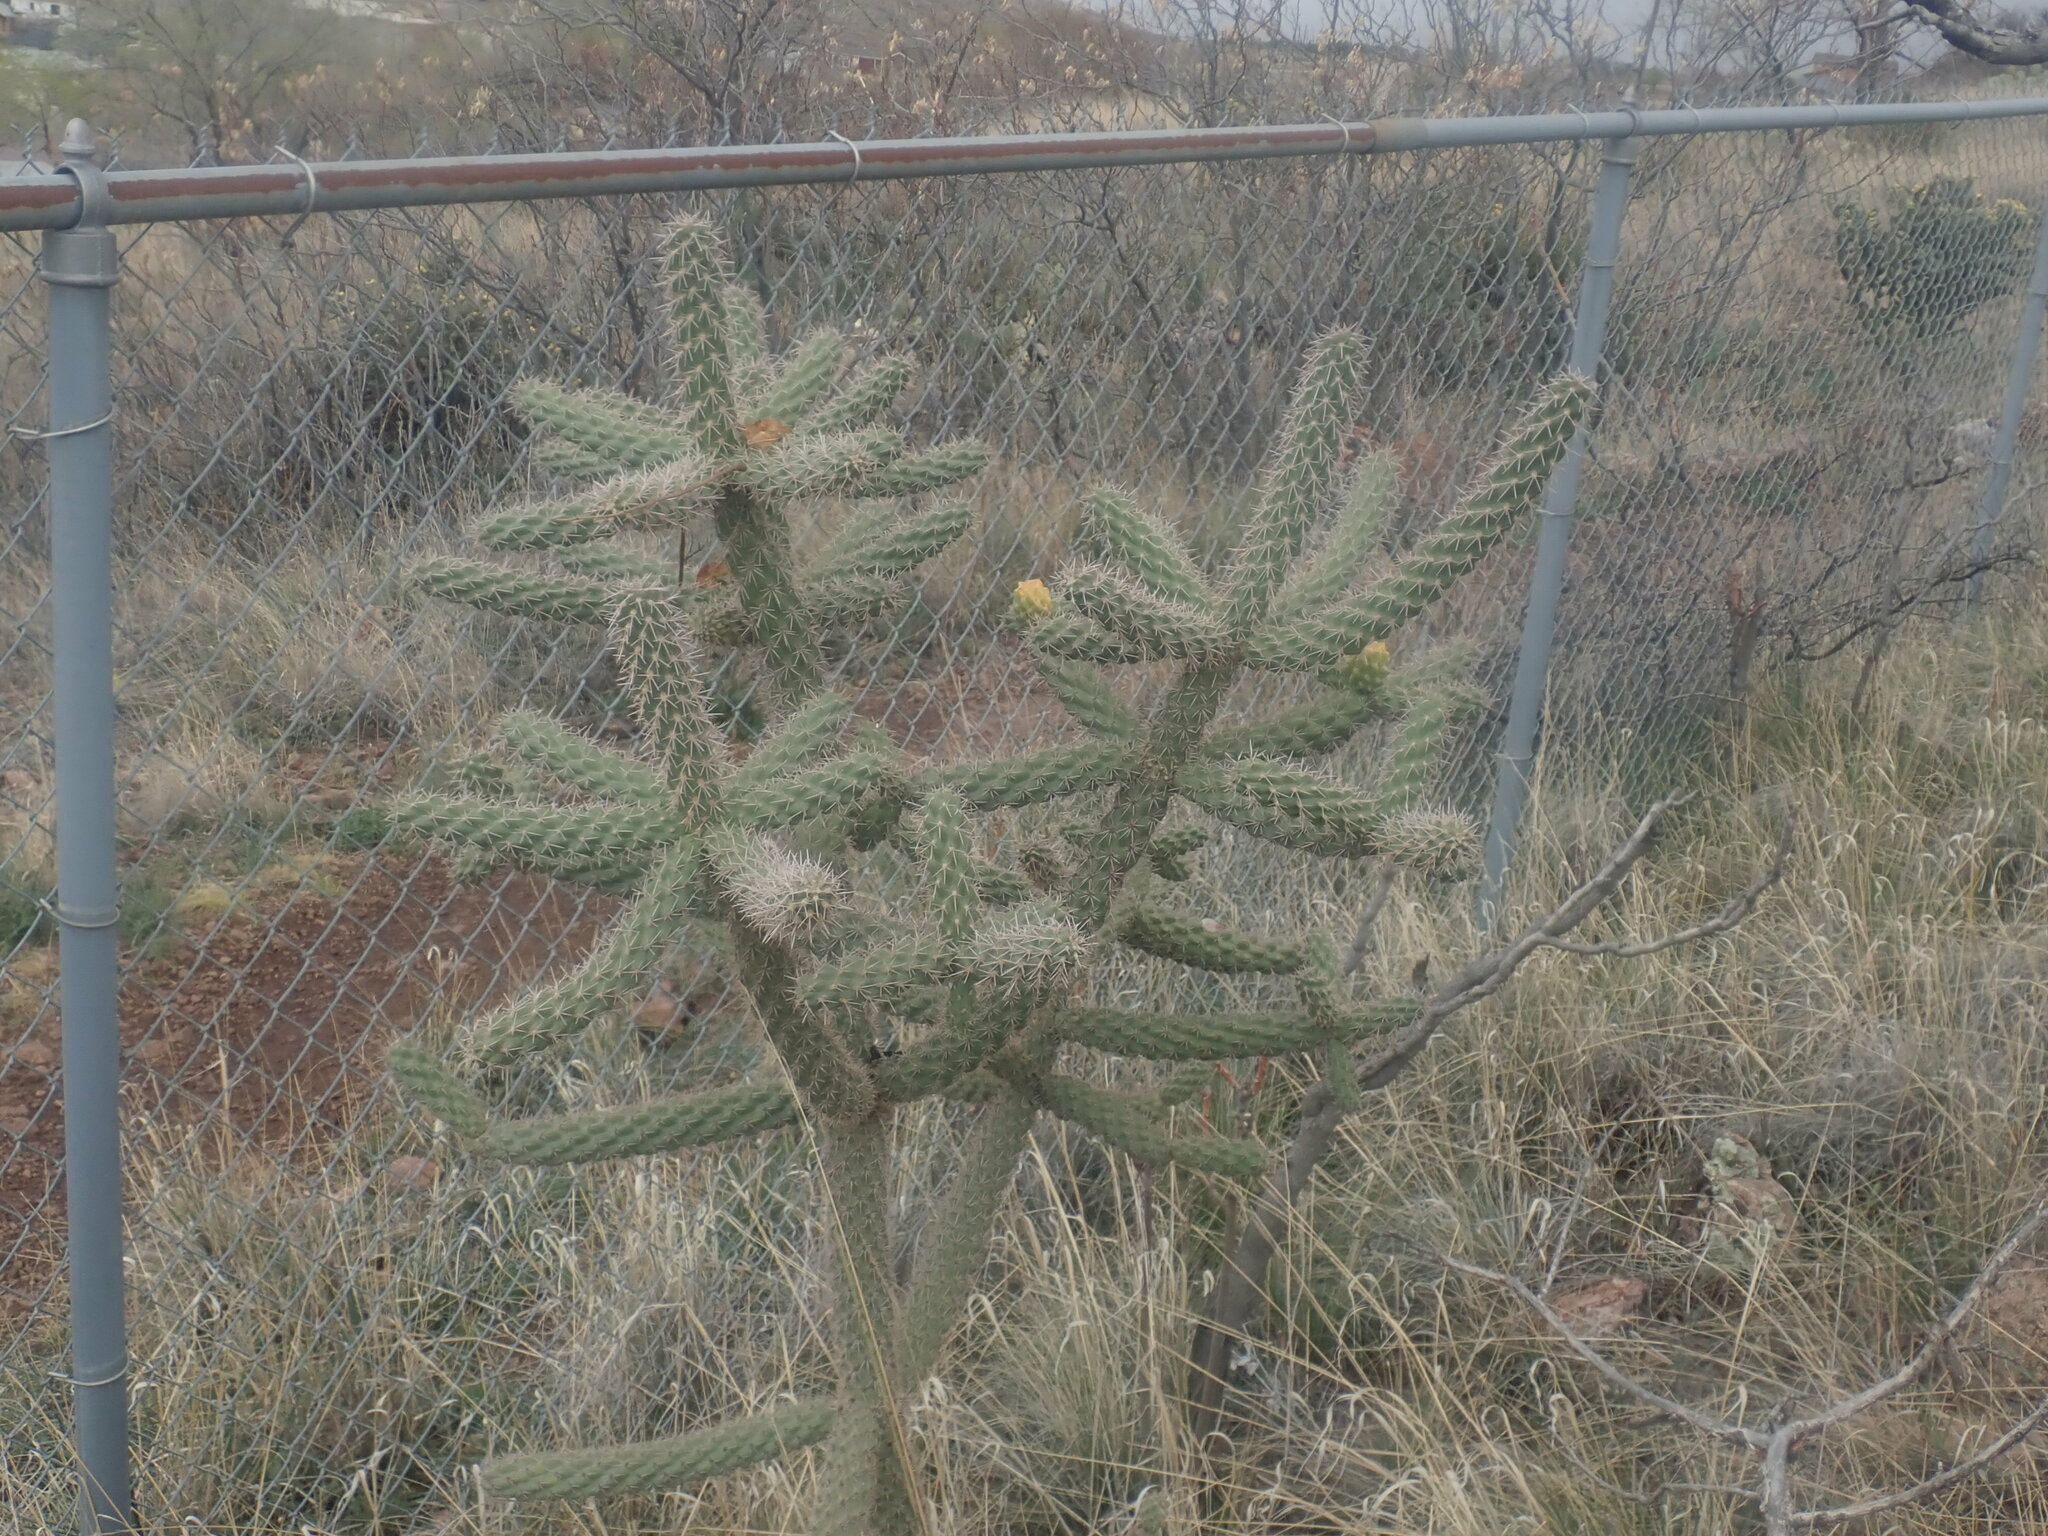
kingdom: Plantae
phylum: Tracheophyta
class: Magnoliopsida
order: Caryophyllales
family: Cactaceae
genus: Cylindropuntia
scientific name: Cylindropuntia imbricata
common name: Candelabrum cactus
